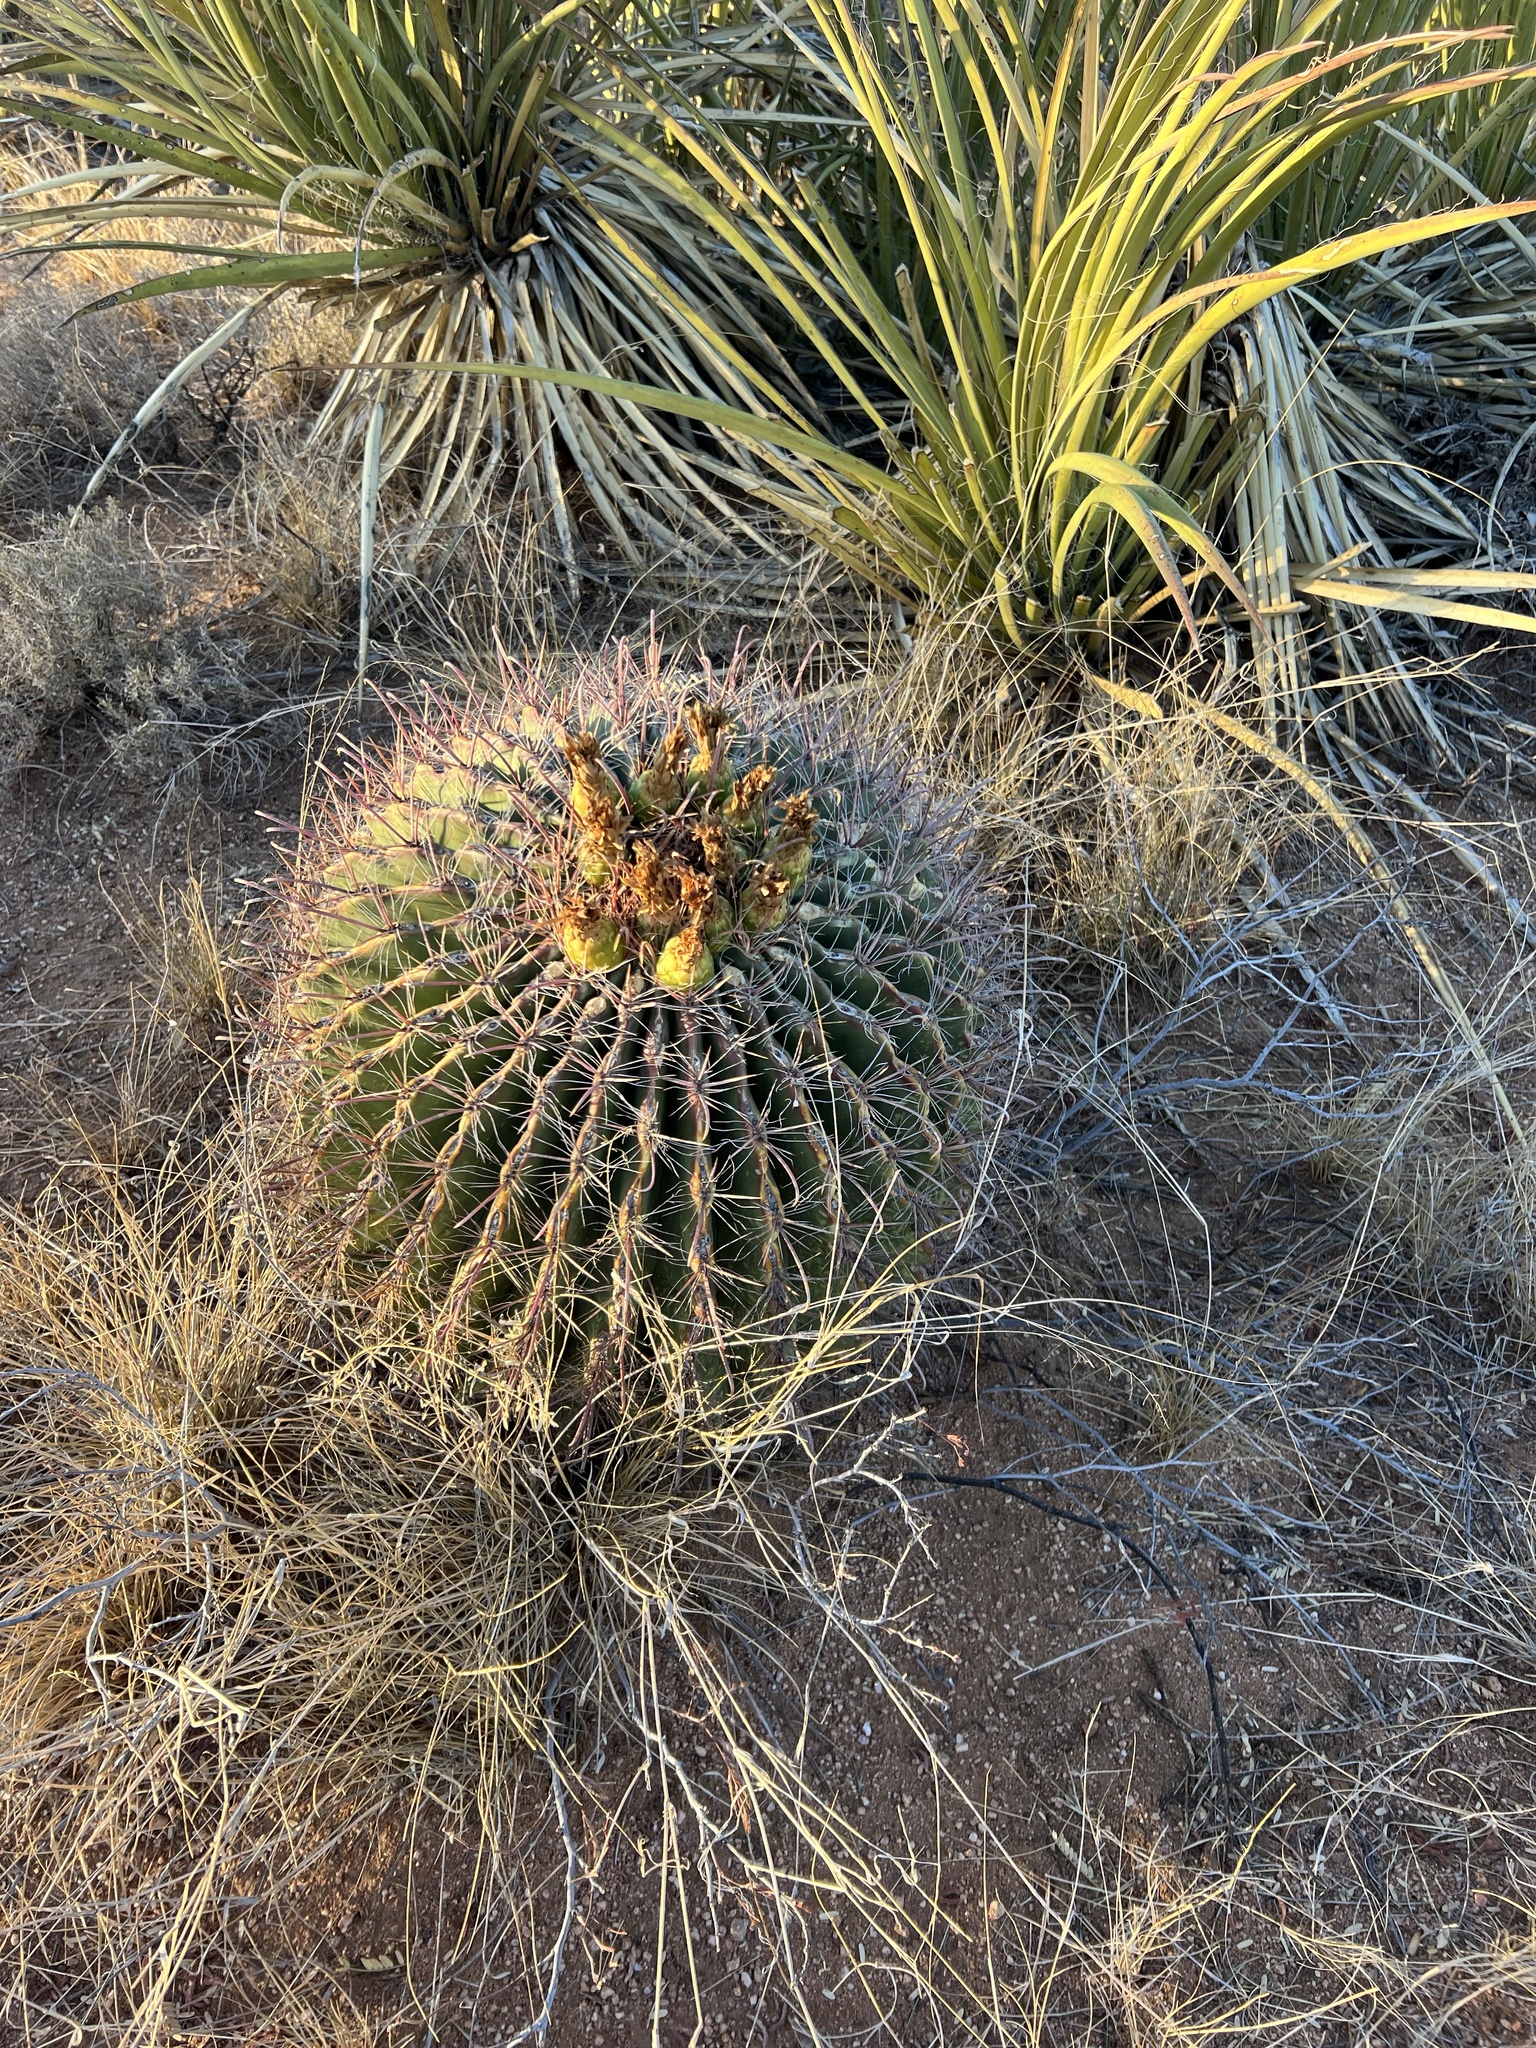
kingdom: Plantae
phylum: Tracheophyta
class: Magnoliopsida
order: Caryophyllales
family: Cactaceae
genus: Ferocactus
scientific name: Ferocactus wislizeni
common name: Candy barrel cactus
